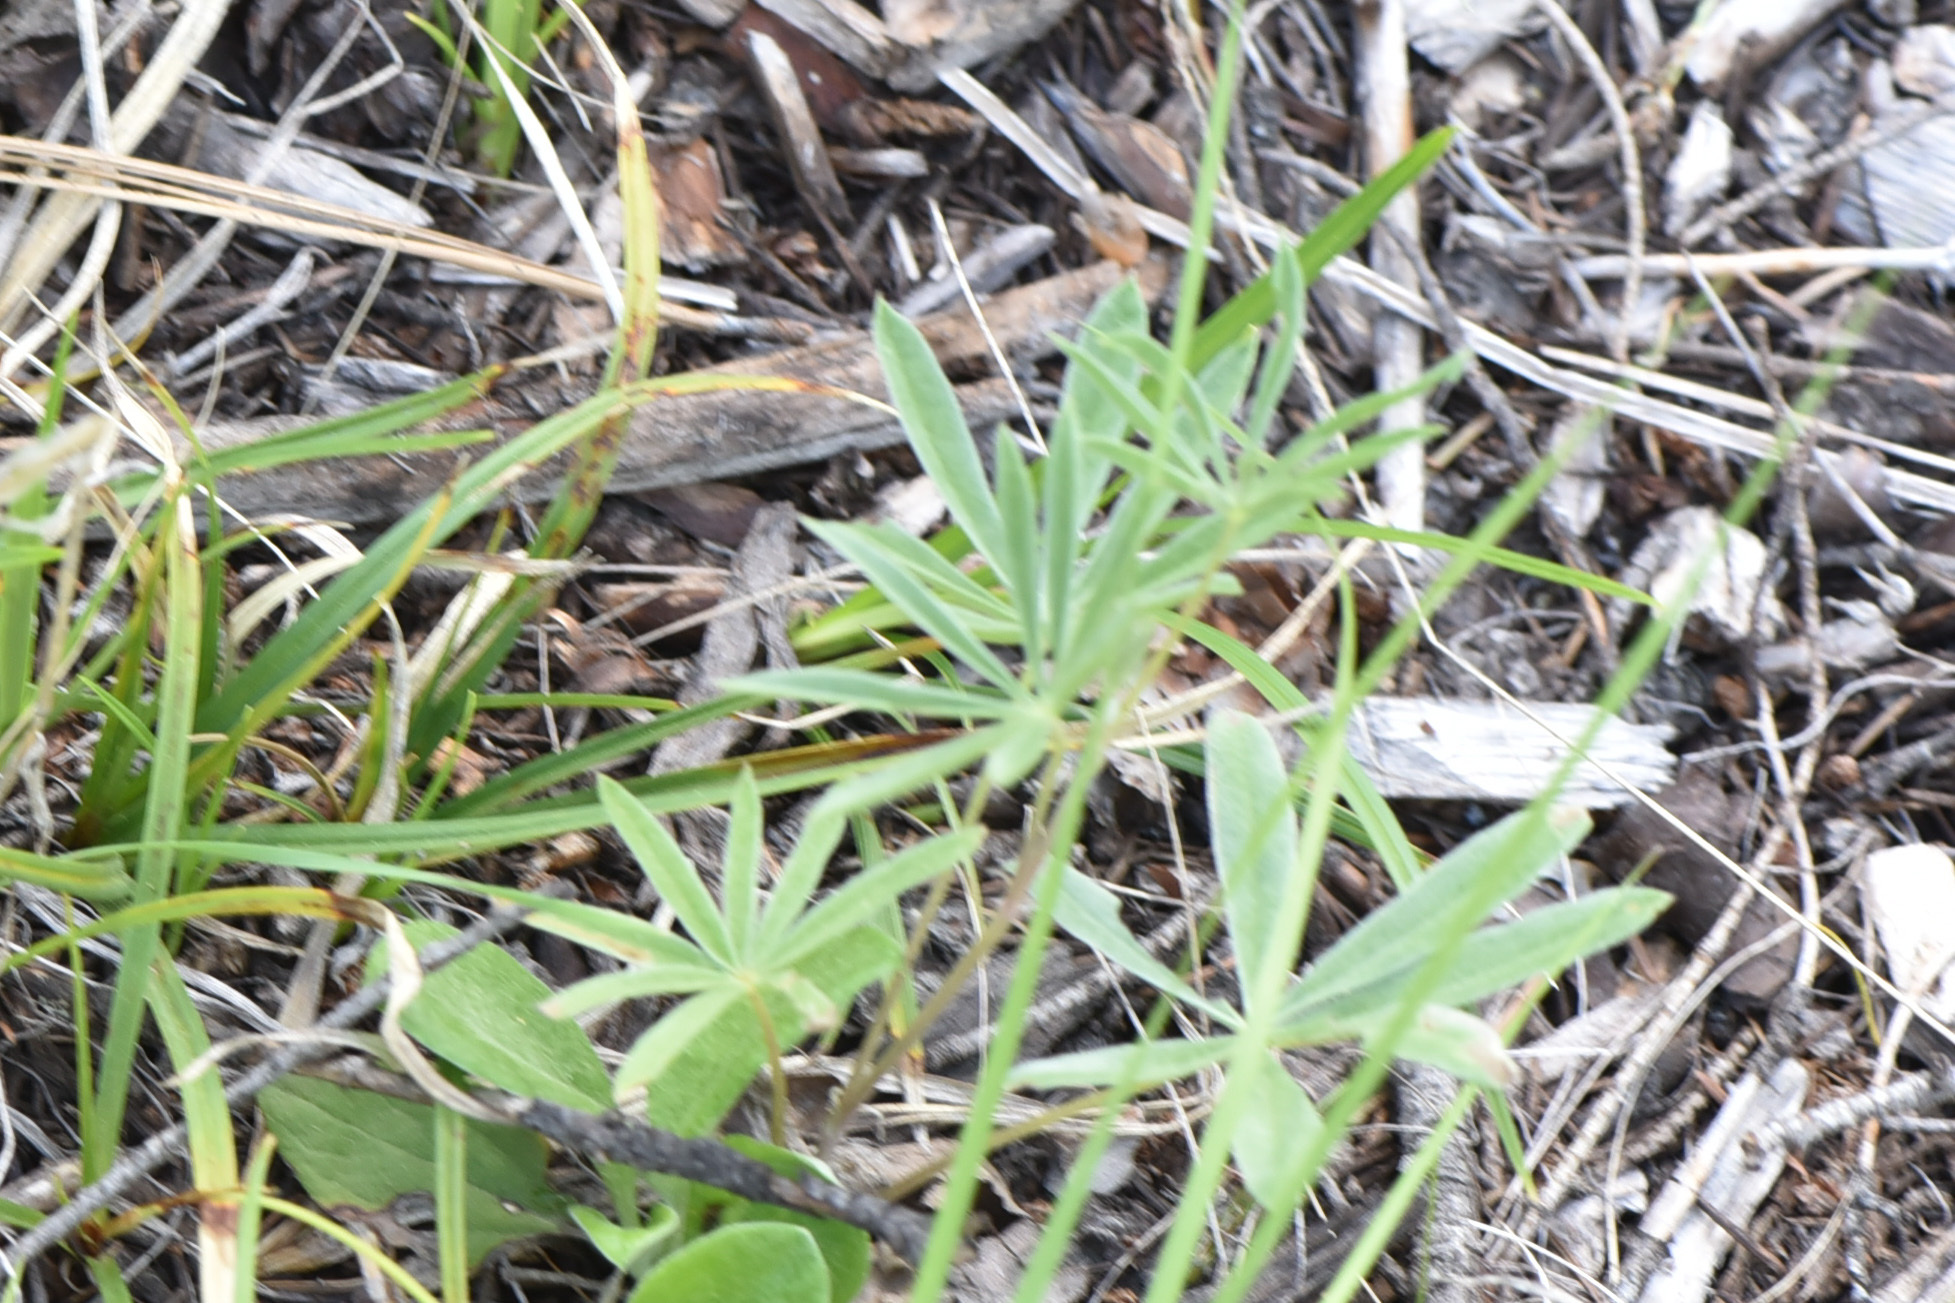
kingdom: Plantae
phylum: Tracheophyta
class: Magnoliopsida
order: Fabales
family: Fabaceae
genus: Lupinus
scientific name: Lupinus sericeus
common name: Silky lupine
